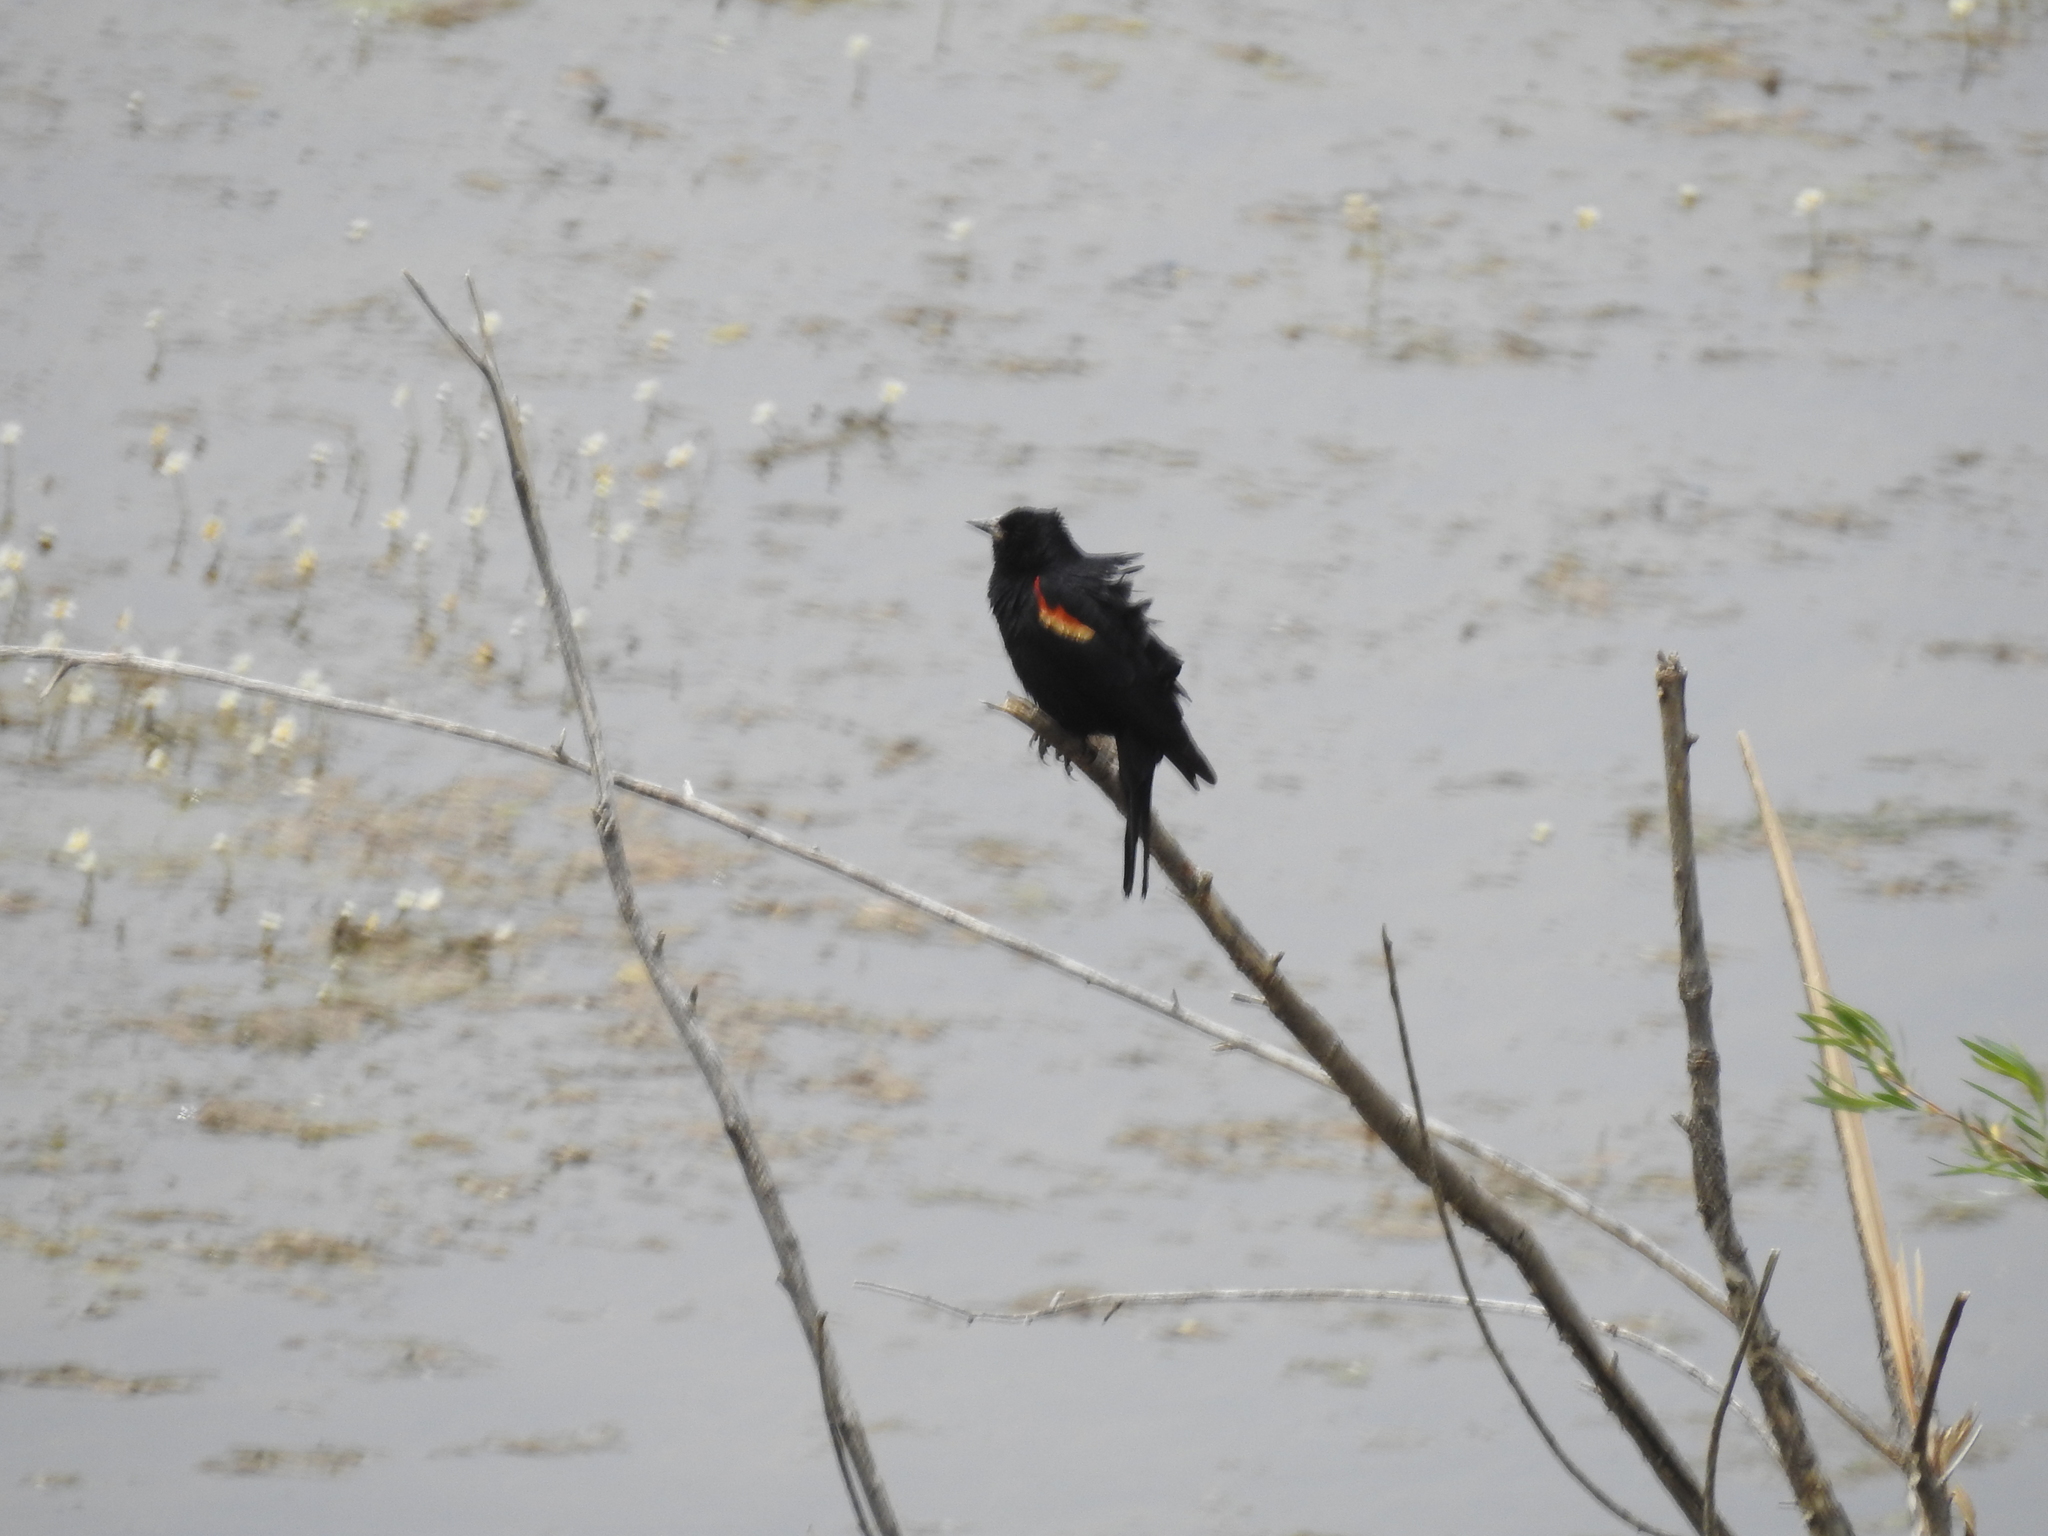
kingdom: Animalia
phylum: Chordata
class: Aves
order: Passeriformes
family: Icteridae
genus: Agelaius
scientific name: Agelaius phoeniceus
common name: Red-winged blackbird
